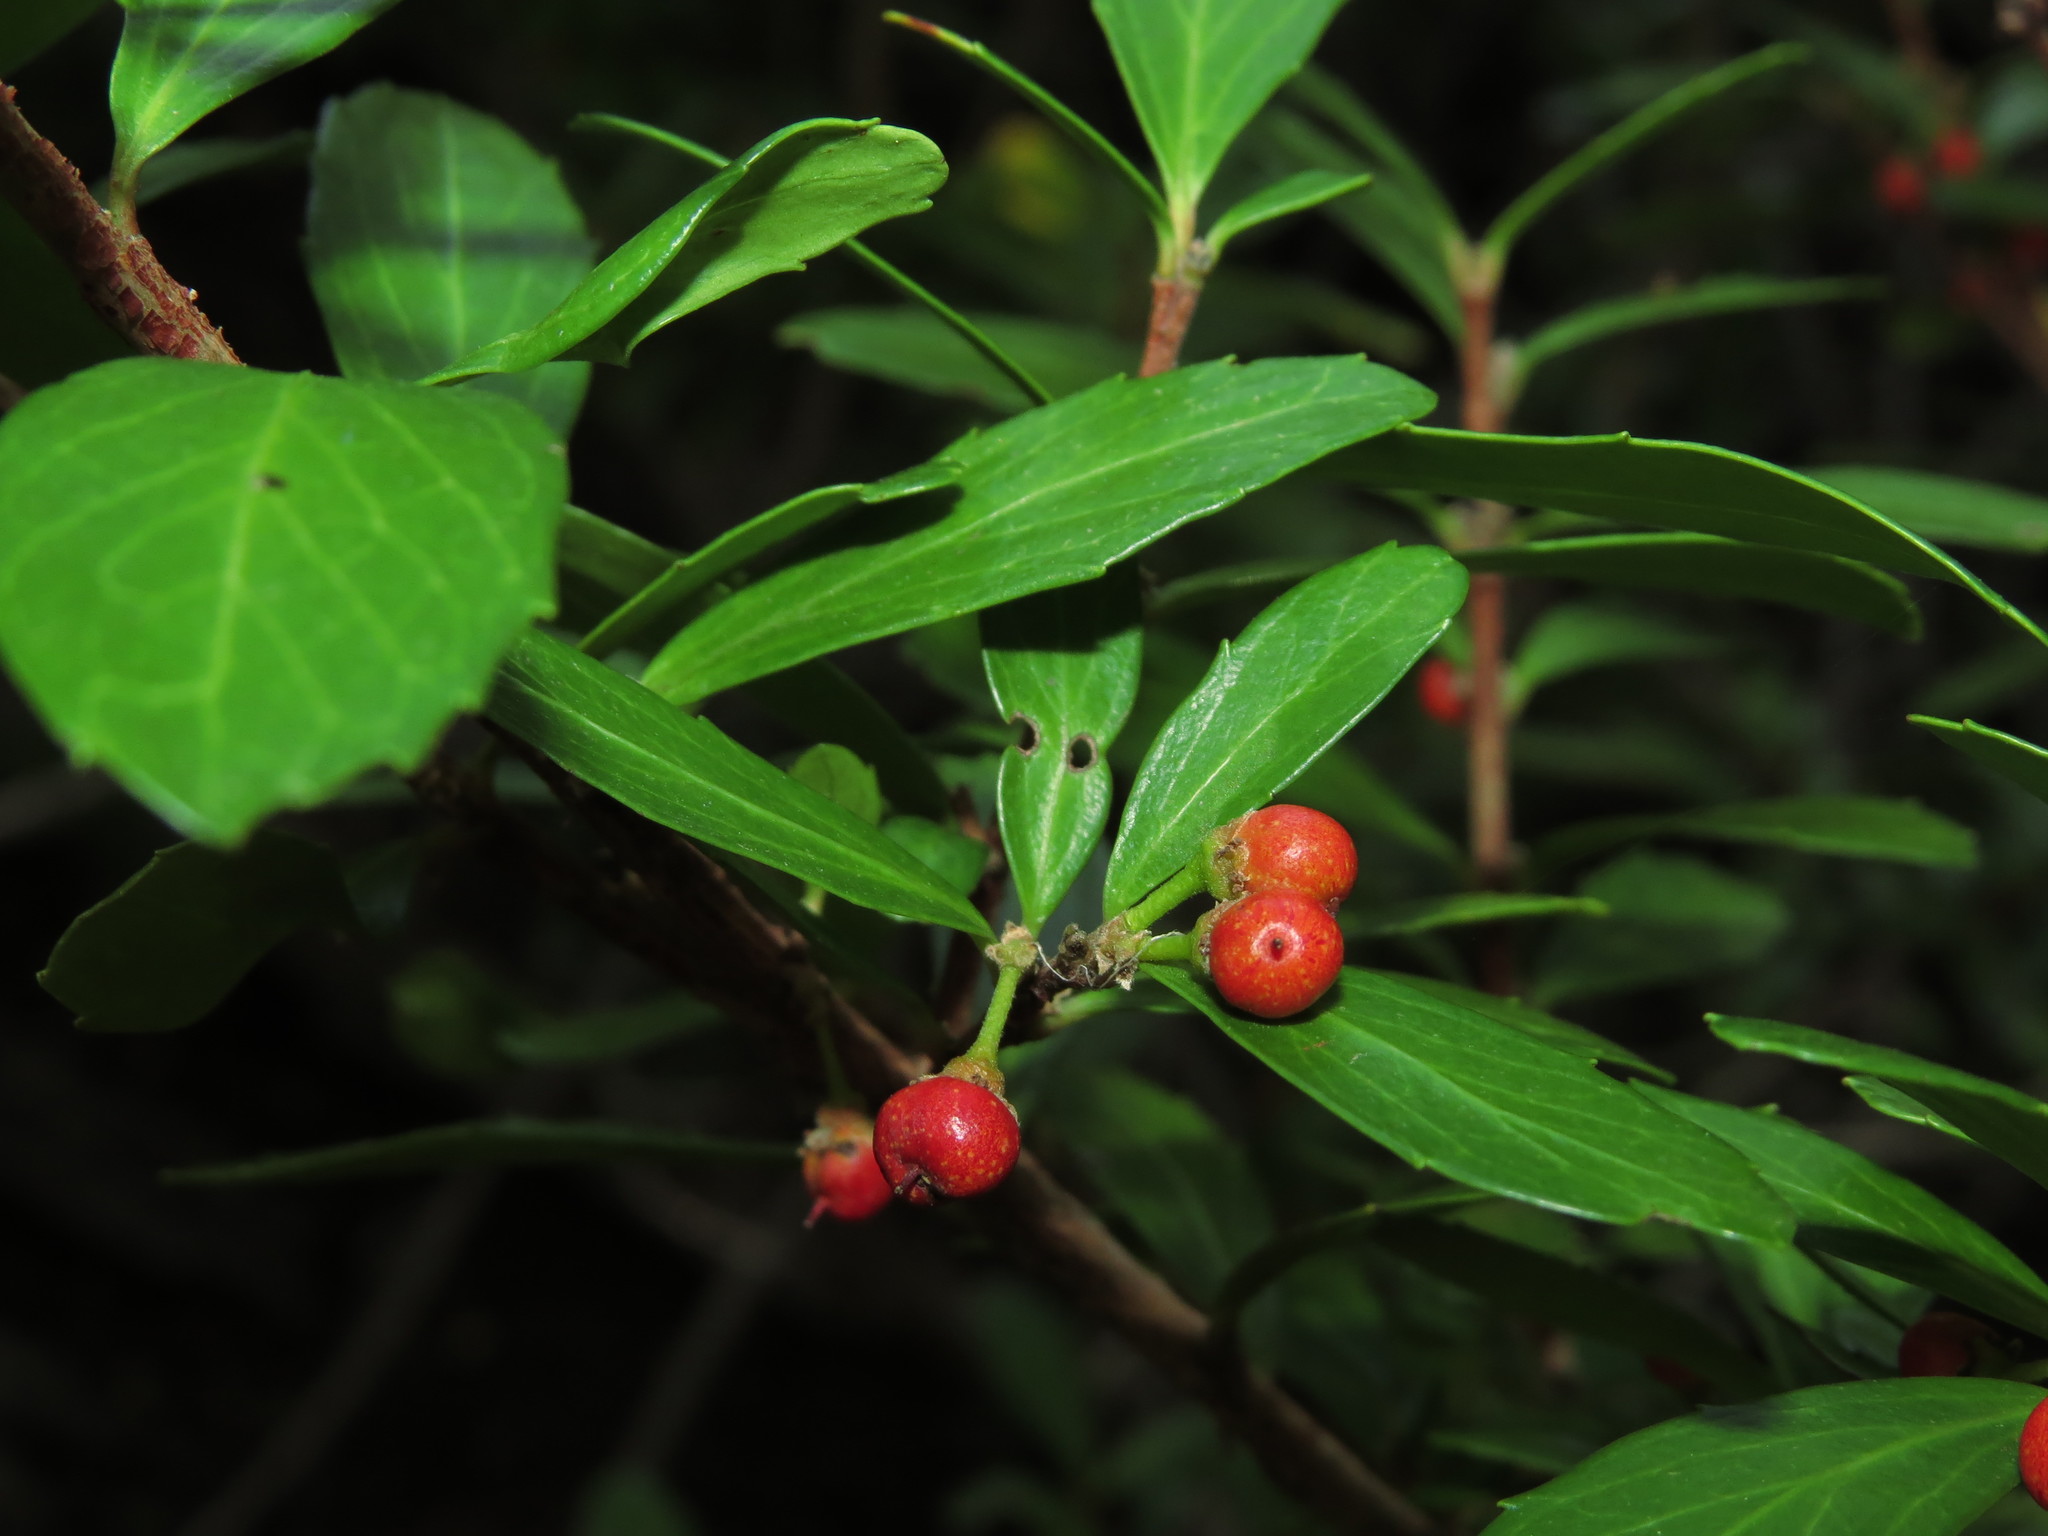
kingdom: Plantae
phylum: Tracheophyta
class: Magnoliopsida
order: Malpighiales
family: Salicaceae
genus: Azara
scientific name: Azara alpina
